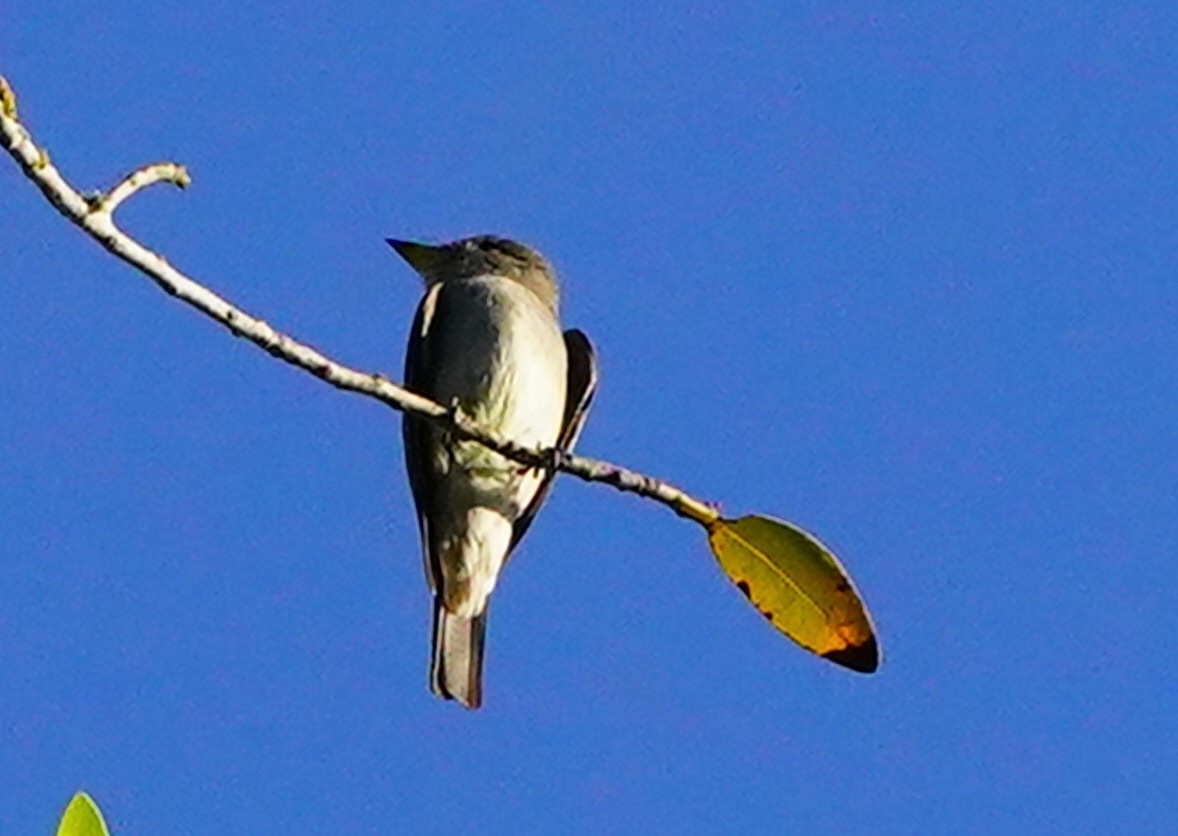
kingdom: Animalia
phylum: Chordata
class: Aves
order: Passeriformes
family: Tyrannidae
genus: Contopus
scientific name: Contopus cooperi
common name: Olive-sided flycatcher
